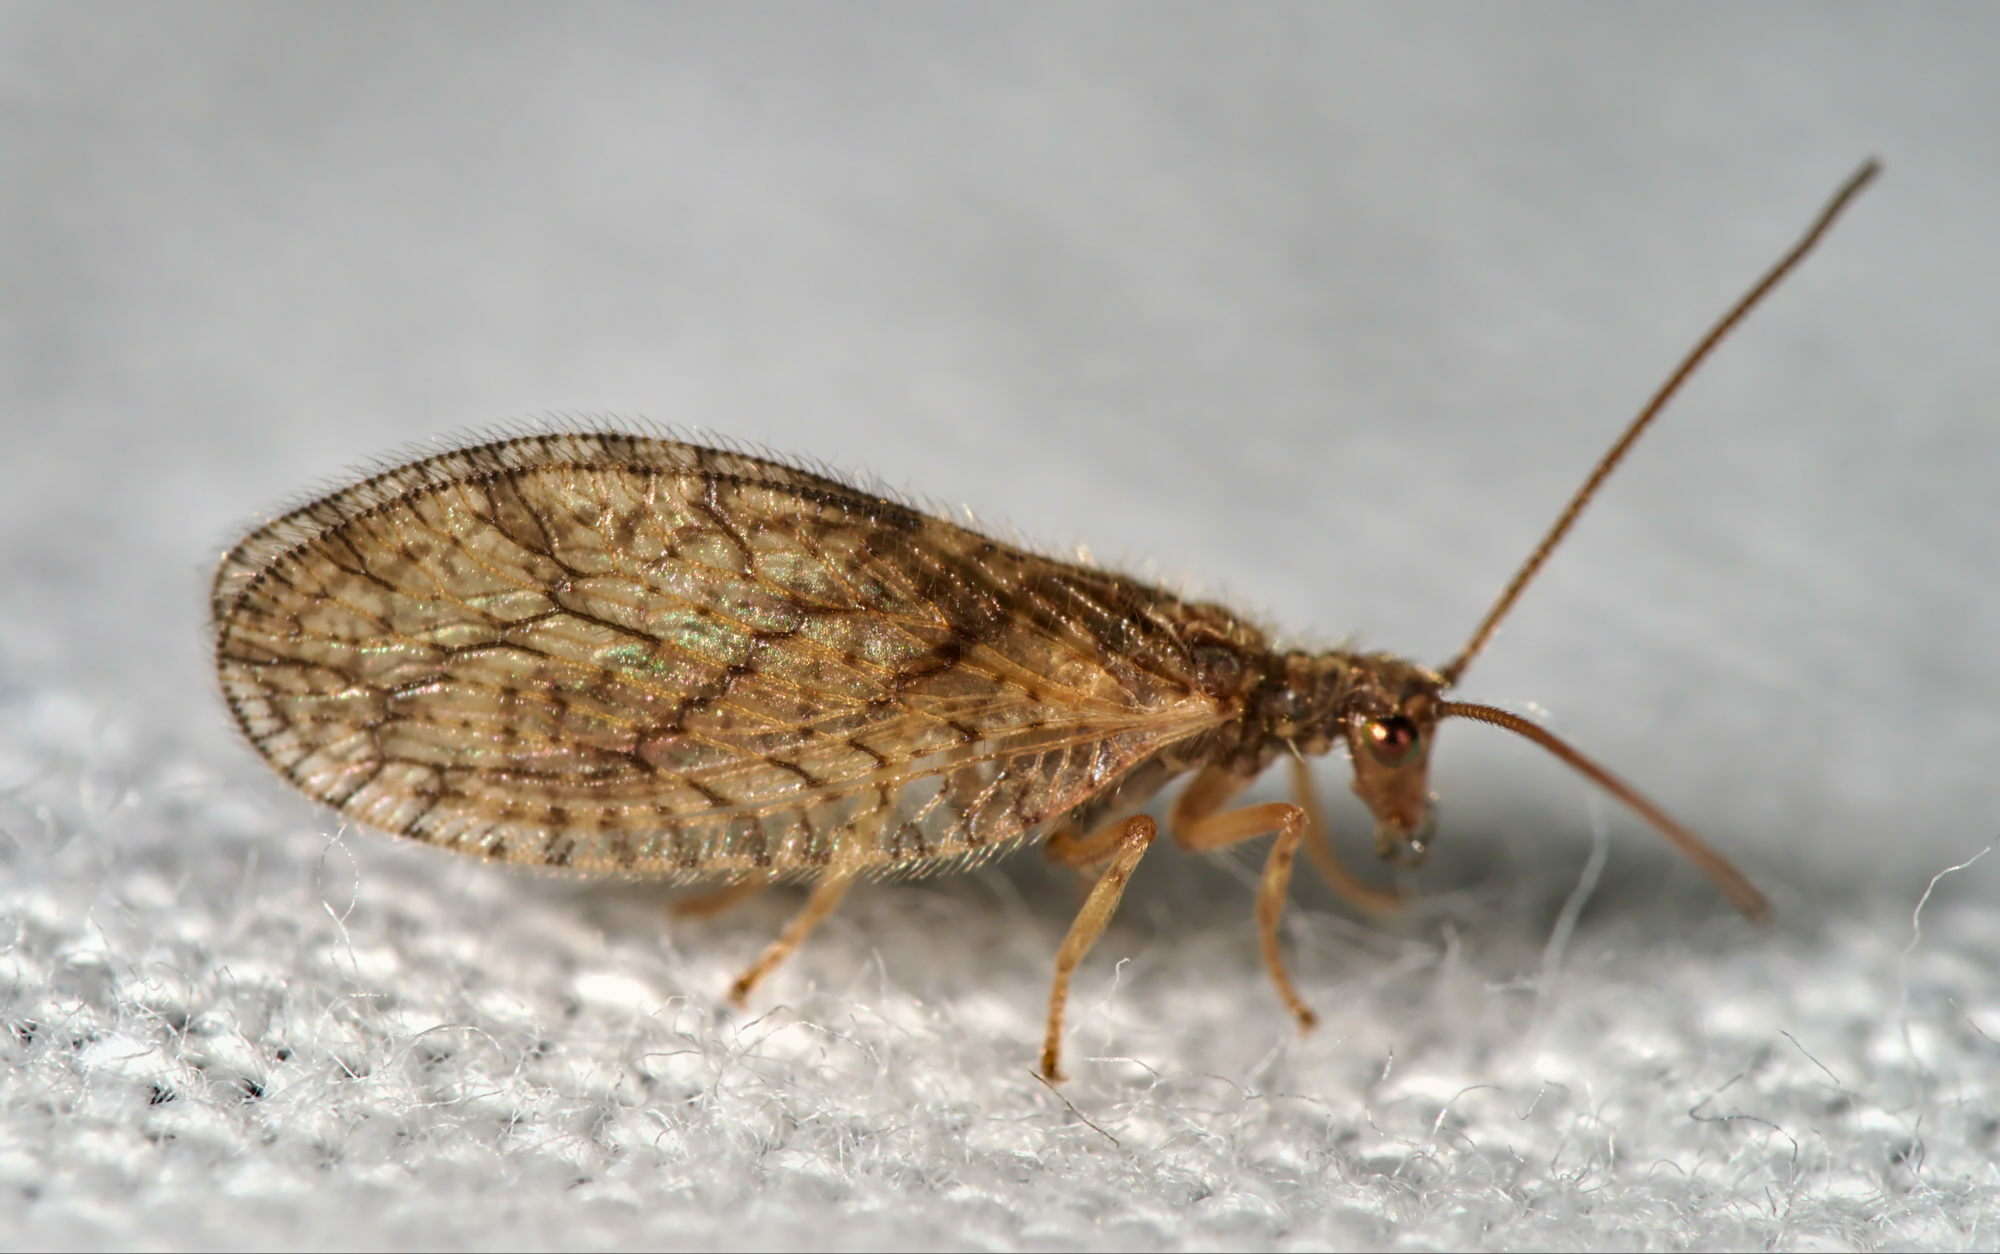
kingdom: Animalia
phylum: Arthropoda
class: Insecta
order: Neuroptera
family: Hemerobiidae
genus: Micromus
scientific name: Micromus angulatus
